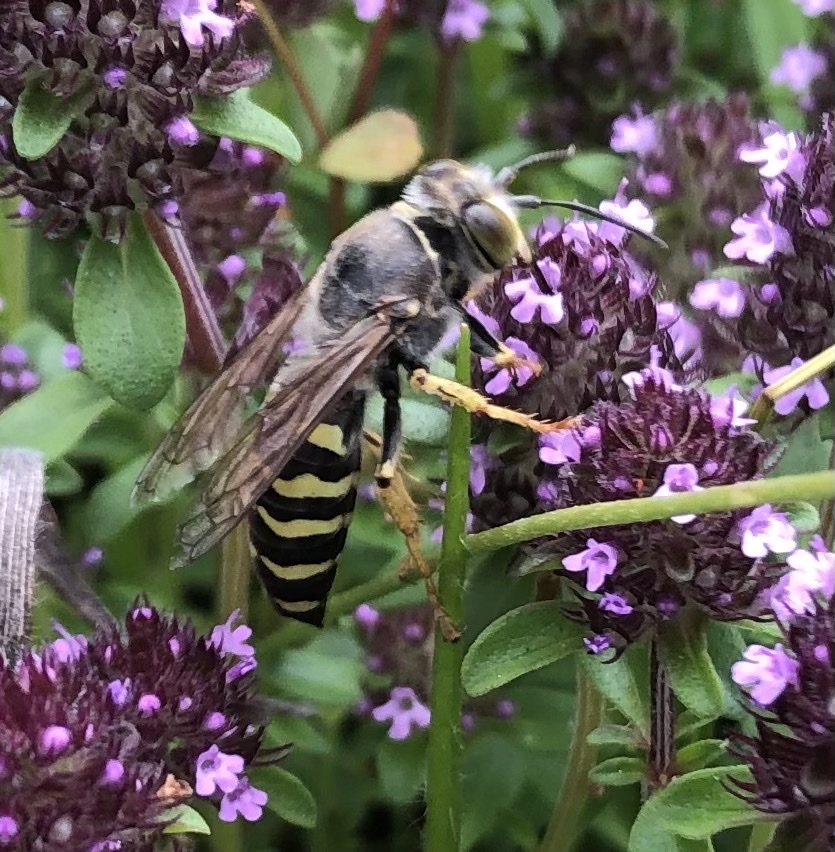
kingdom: Animalia
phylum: Arthropoda
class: Insecta
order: Hymenoptera
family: Crabronidae
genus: Bembix
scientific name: Bembix rostrata
